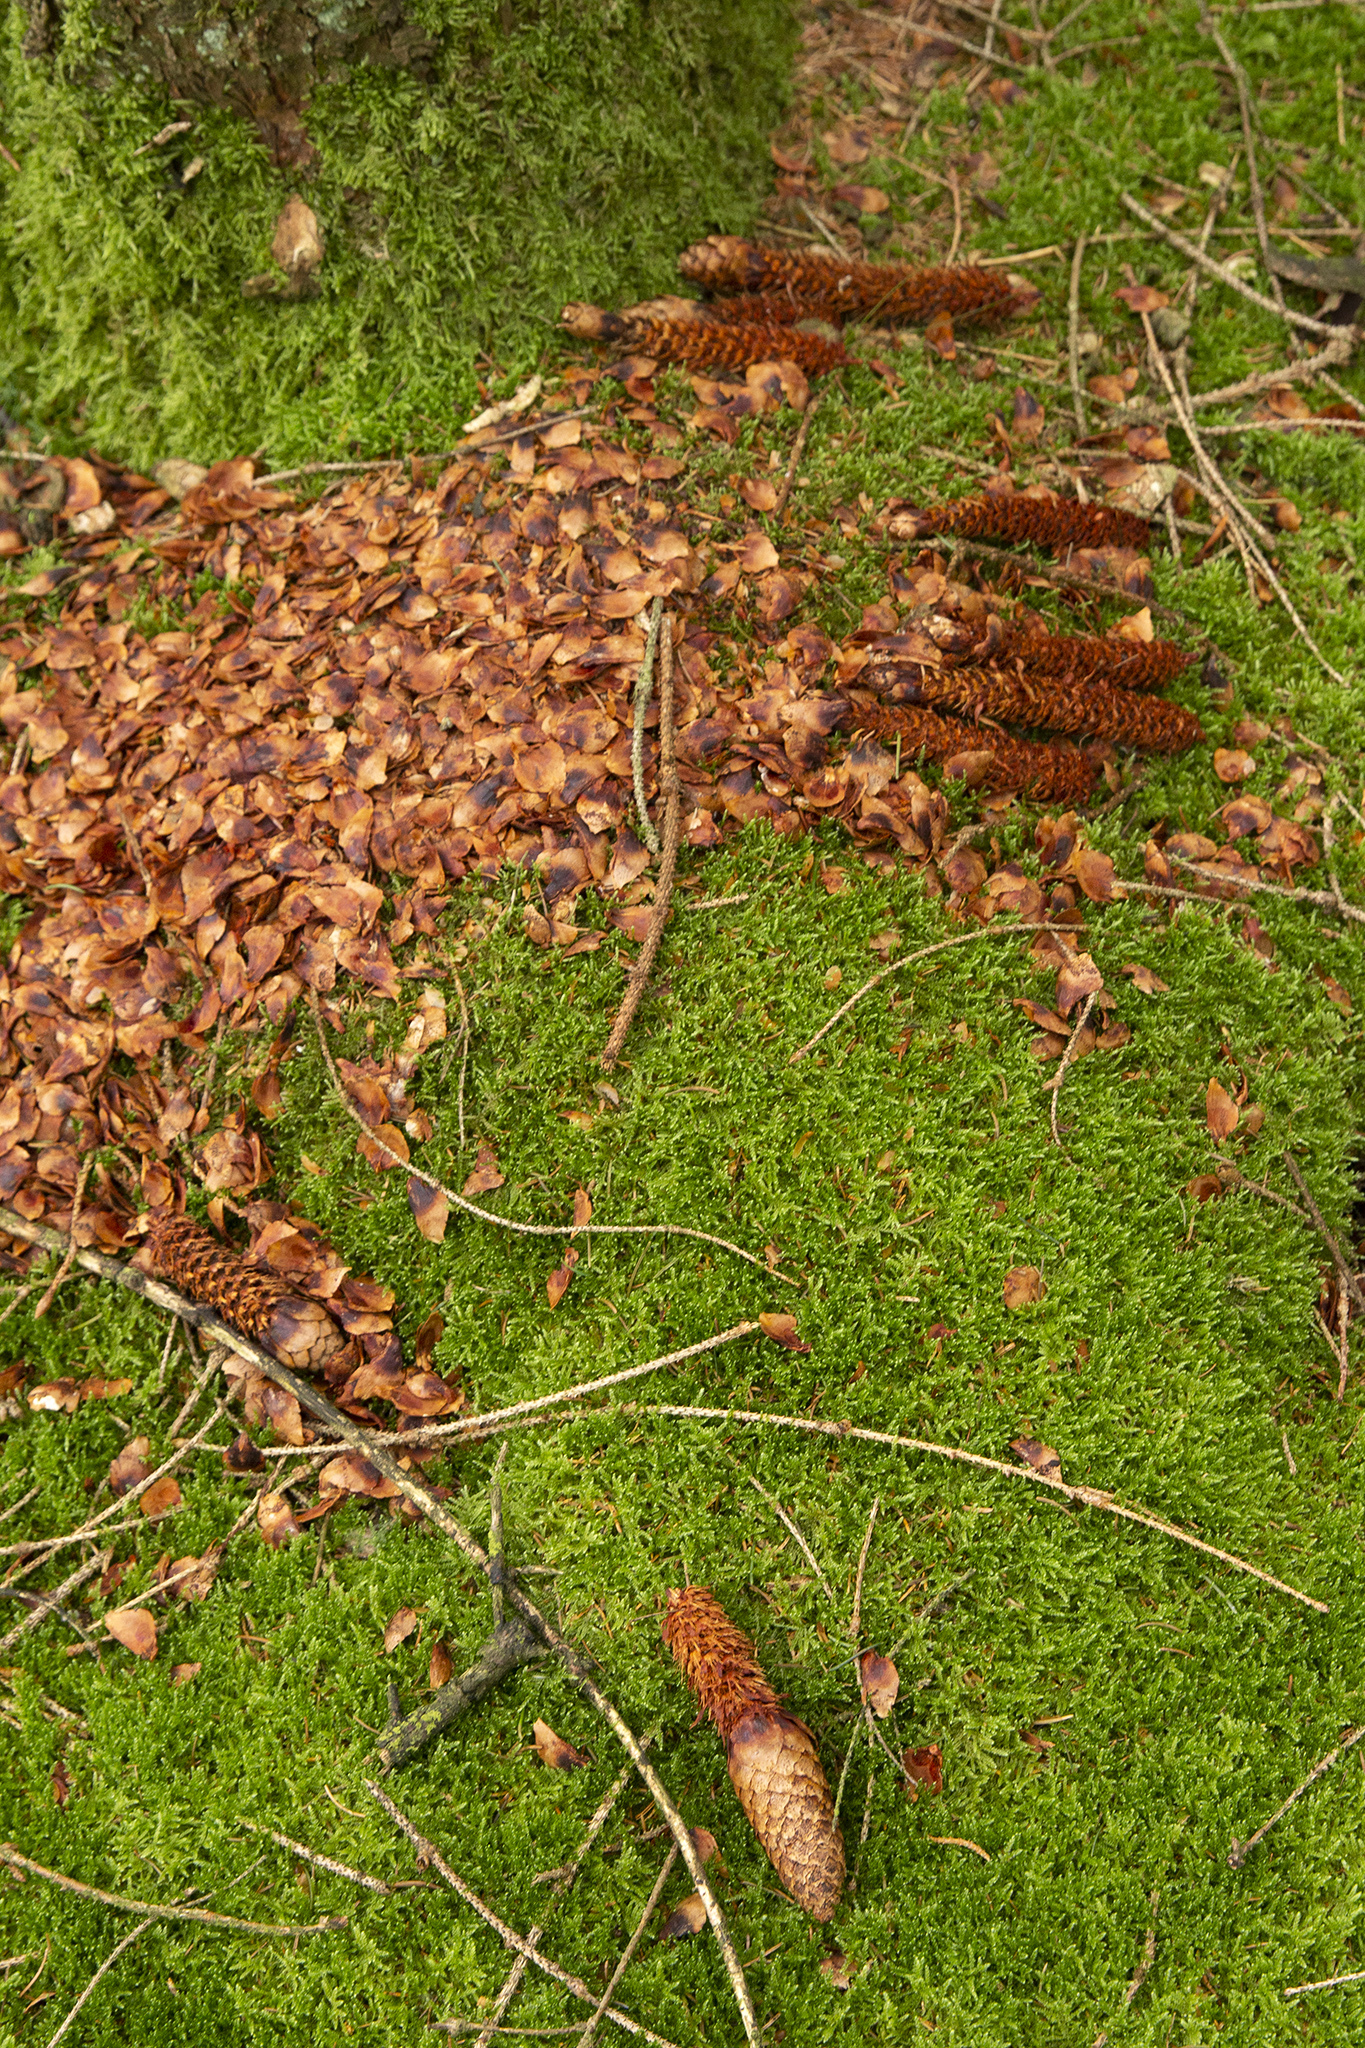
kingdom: Animalia
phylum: Chordata
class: Mammalia
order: Rodentia
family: Sciuridae
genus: Sciurus
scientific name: Sciurus vulgaris
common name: Eurasian red squirrel
